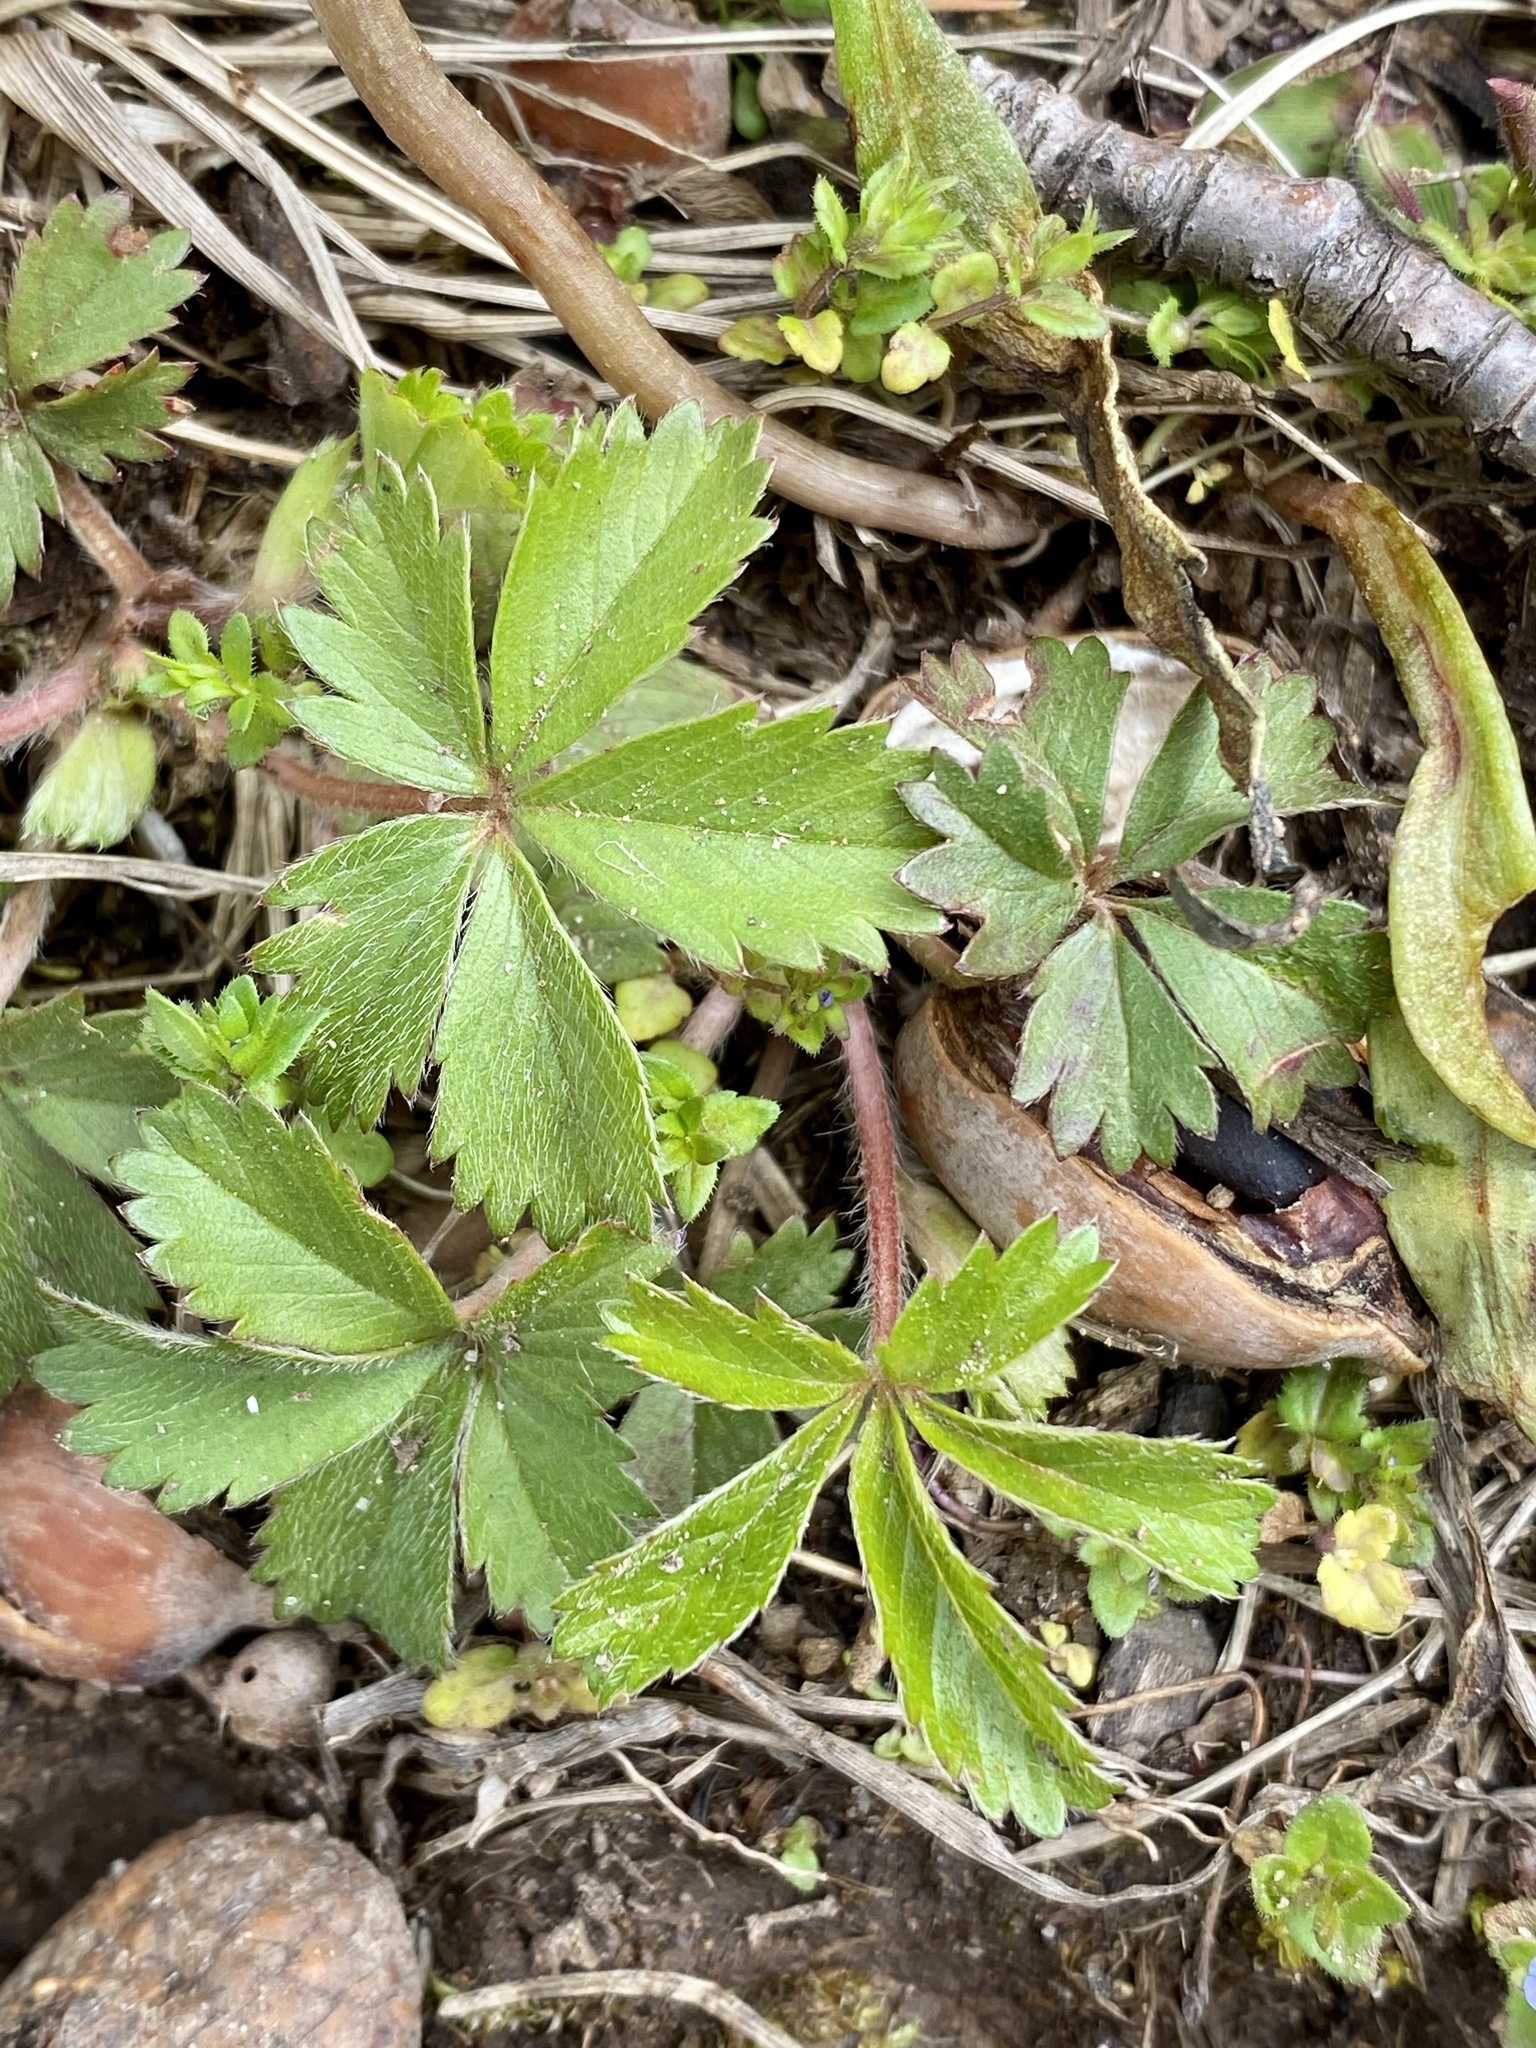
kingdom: Plantae
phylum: Tracheophyta
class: Magnoliopsida
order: Rosales
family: Rosaceae
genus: Potentilla
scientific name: Potentilla canadensis
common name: Canada cinquefoil
